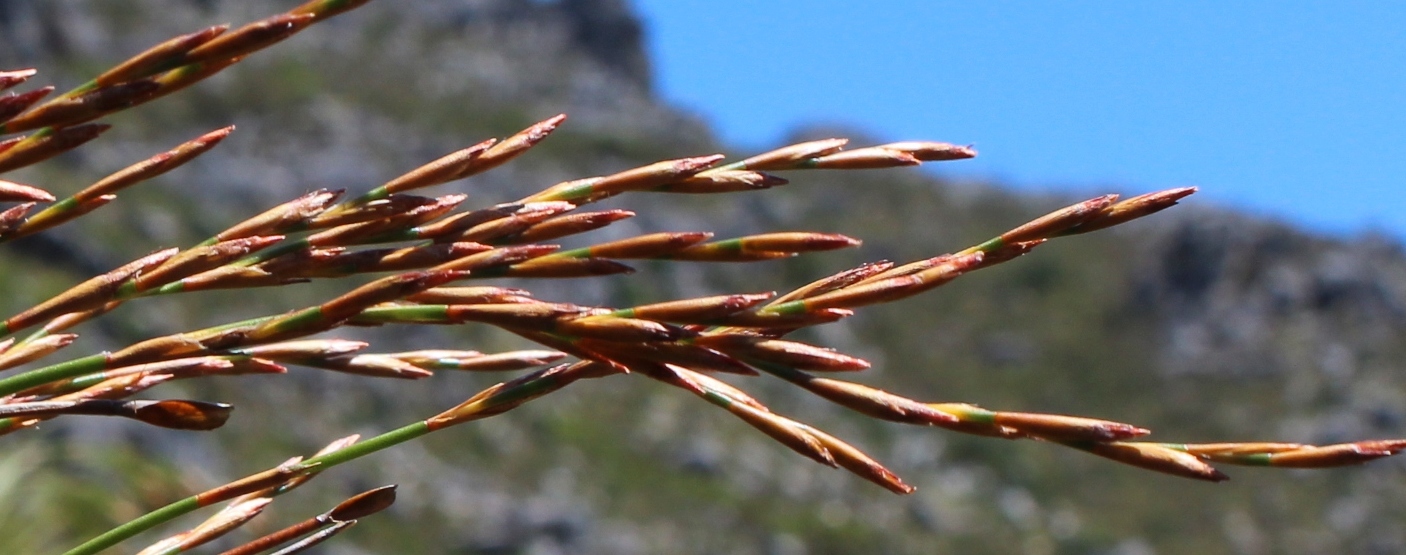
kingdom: Plantae
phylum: Tracheophyta
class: Liliopsida
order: Poales
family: Restionaceae
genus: Restio
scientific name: Restio dispar
